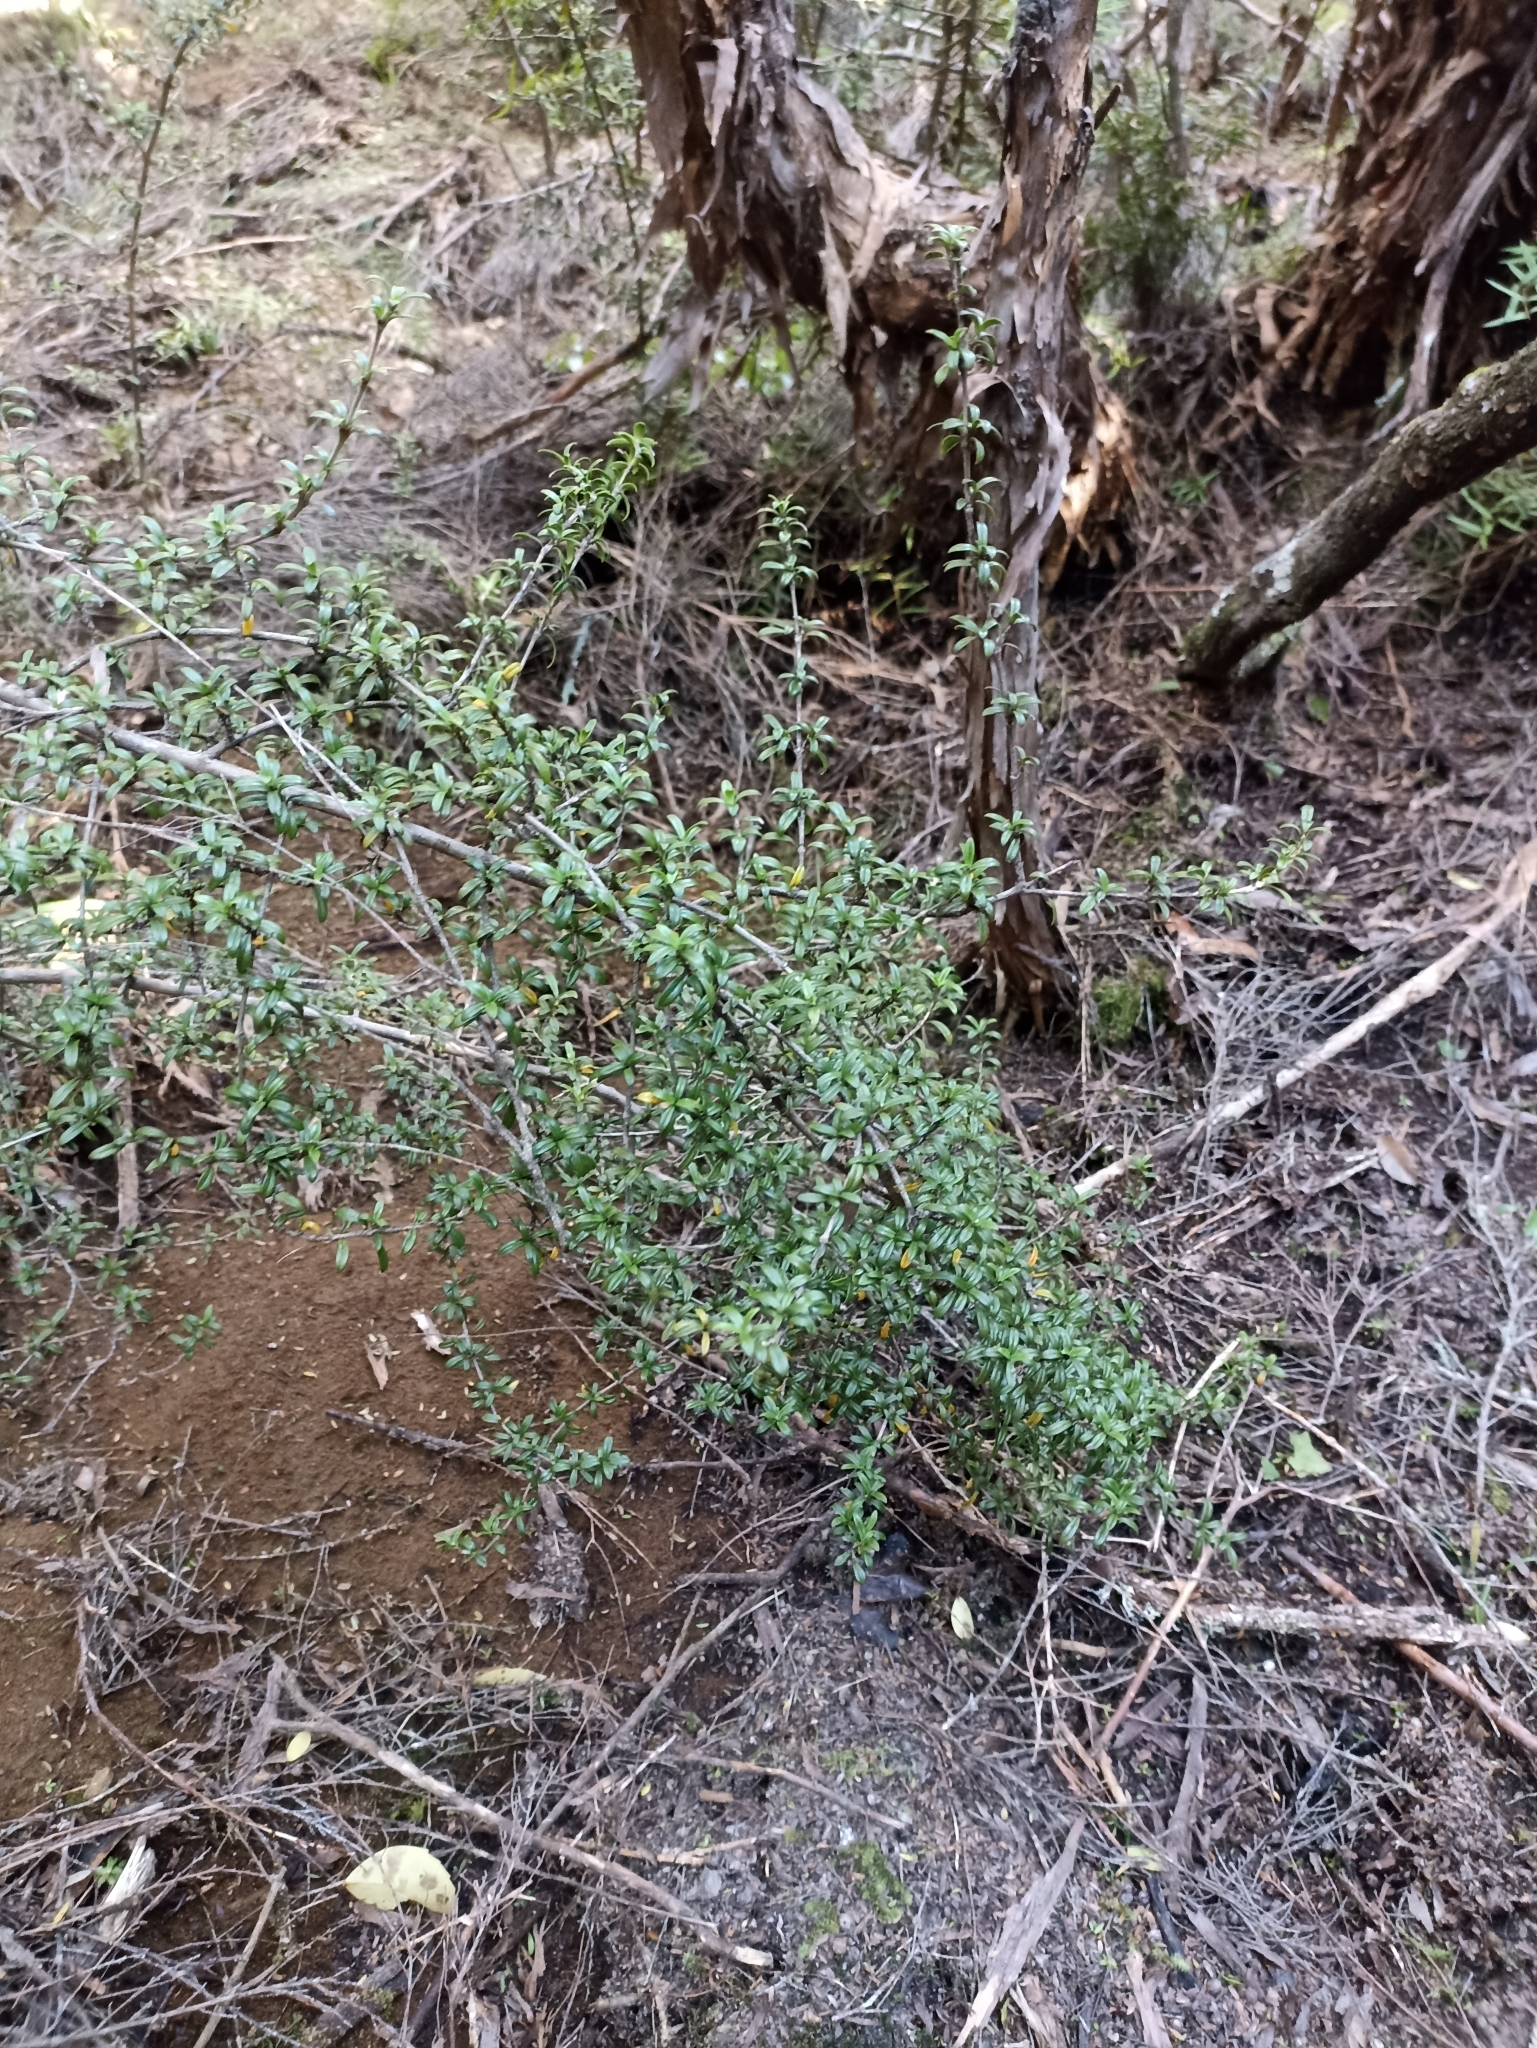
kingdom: Plantae
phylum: Tracheophyta
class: Magnoliopsida
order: Gentianales
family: Rubiaceae
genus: Coprosma
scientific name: Coprosma pseudocuneata
